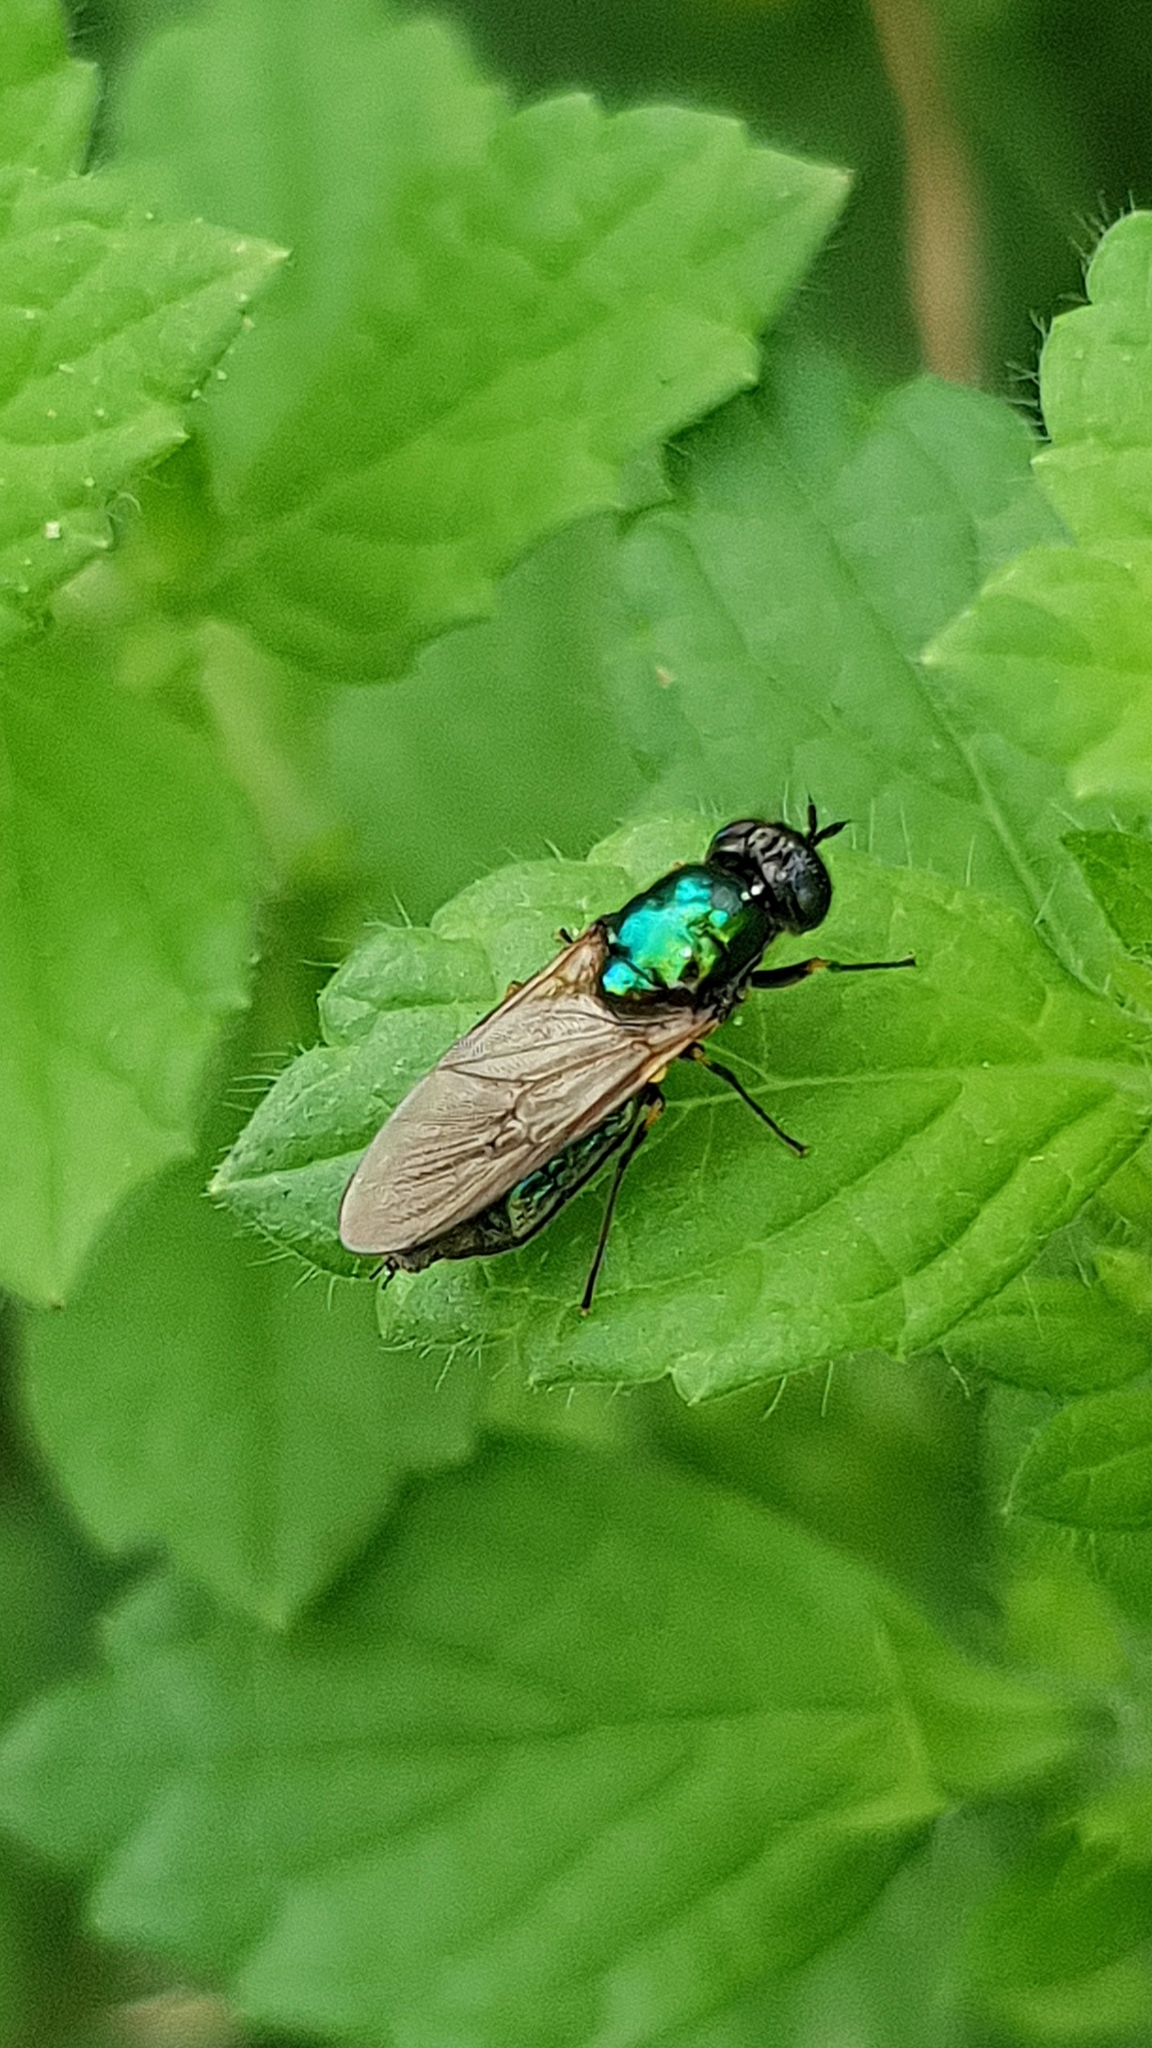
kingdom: Animalia
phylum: Arthropoda
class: Insecta
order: Diptera
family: Stratiomyidae
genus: Chloromyia
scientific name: Chloromyia formosa
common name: Soldier fly
